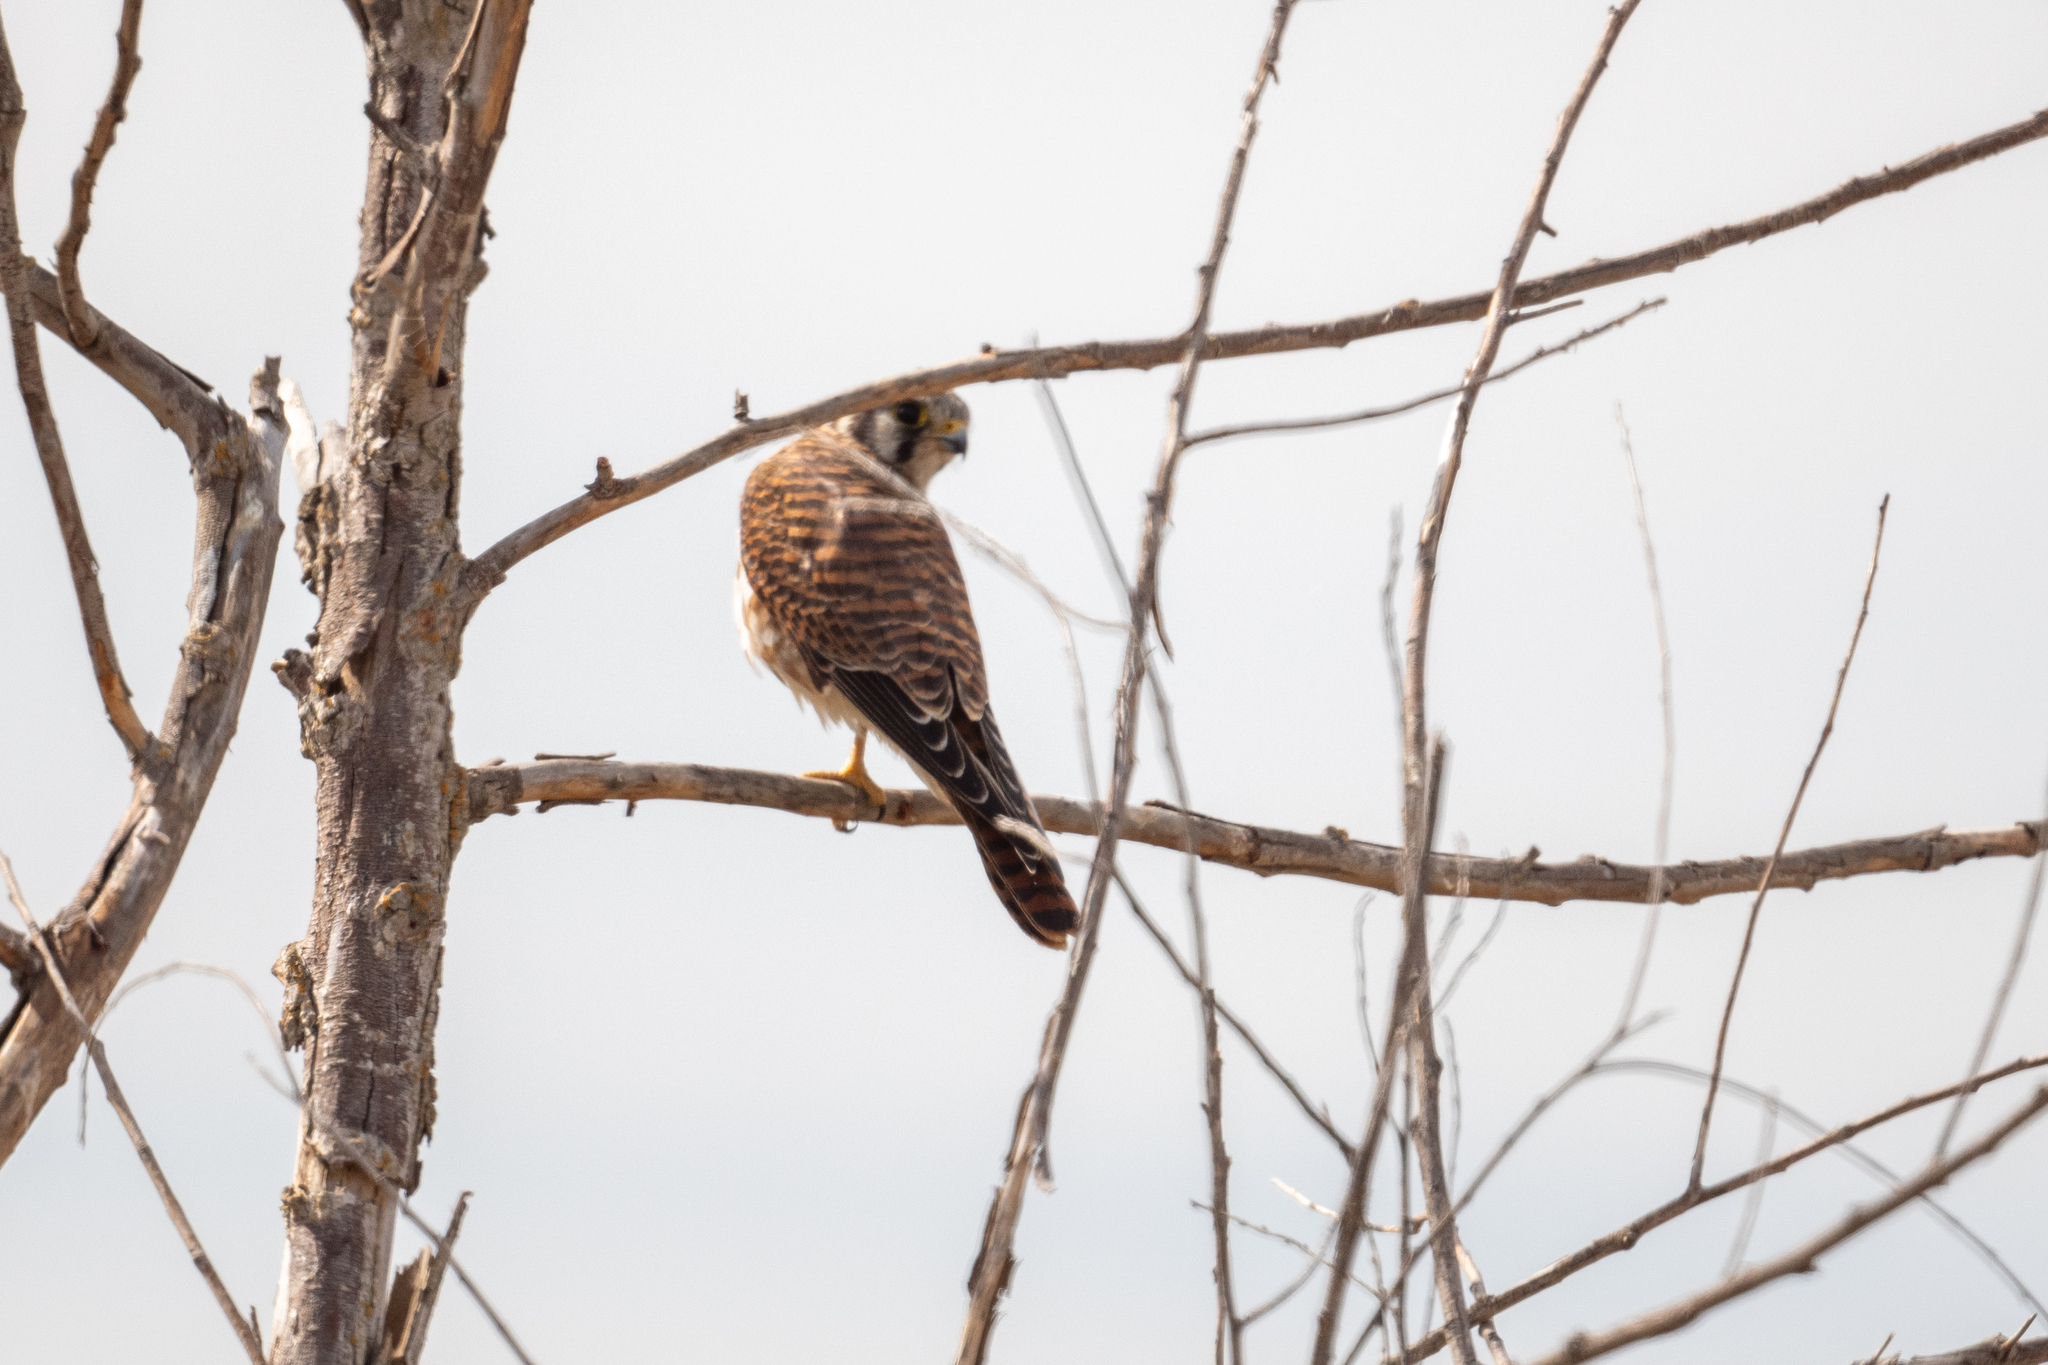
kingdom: Animalia
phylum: Chordata
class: Aves
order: Falconiformes
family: Falconidae
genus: Falco
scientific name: Falco sparverius
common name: American kestrel
